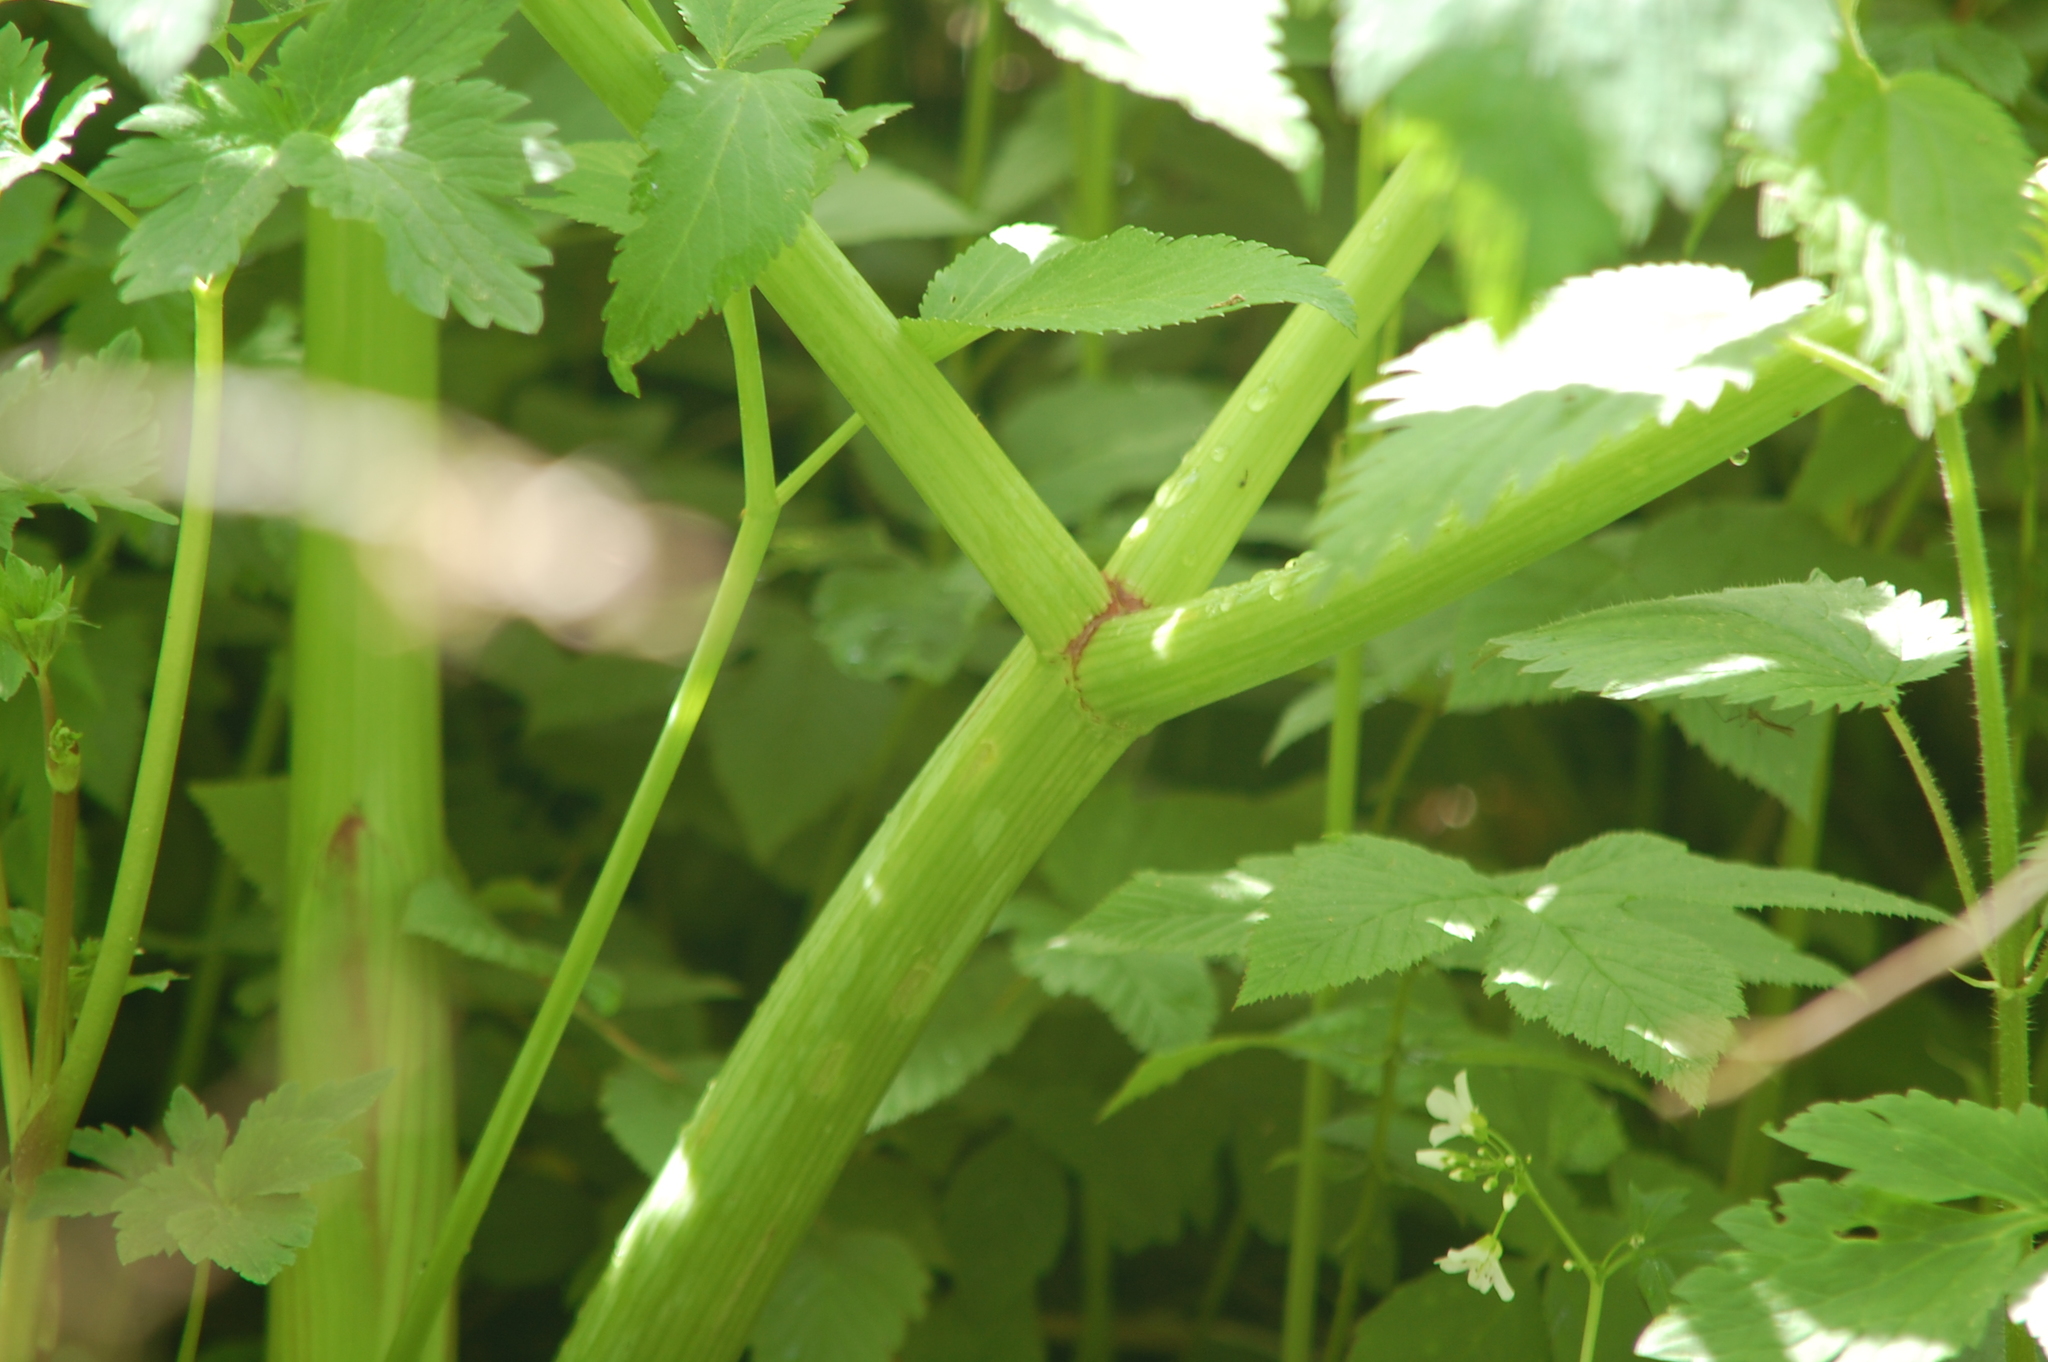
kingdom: Plantae
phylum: Tracheophyta
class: Magnoliopsida
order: Apiales
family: Apiaceae
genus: Angelica
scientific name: Angelica archangelica
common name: Garden angelica
